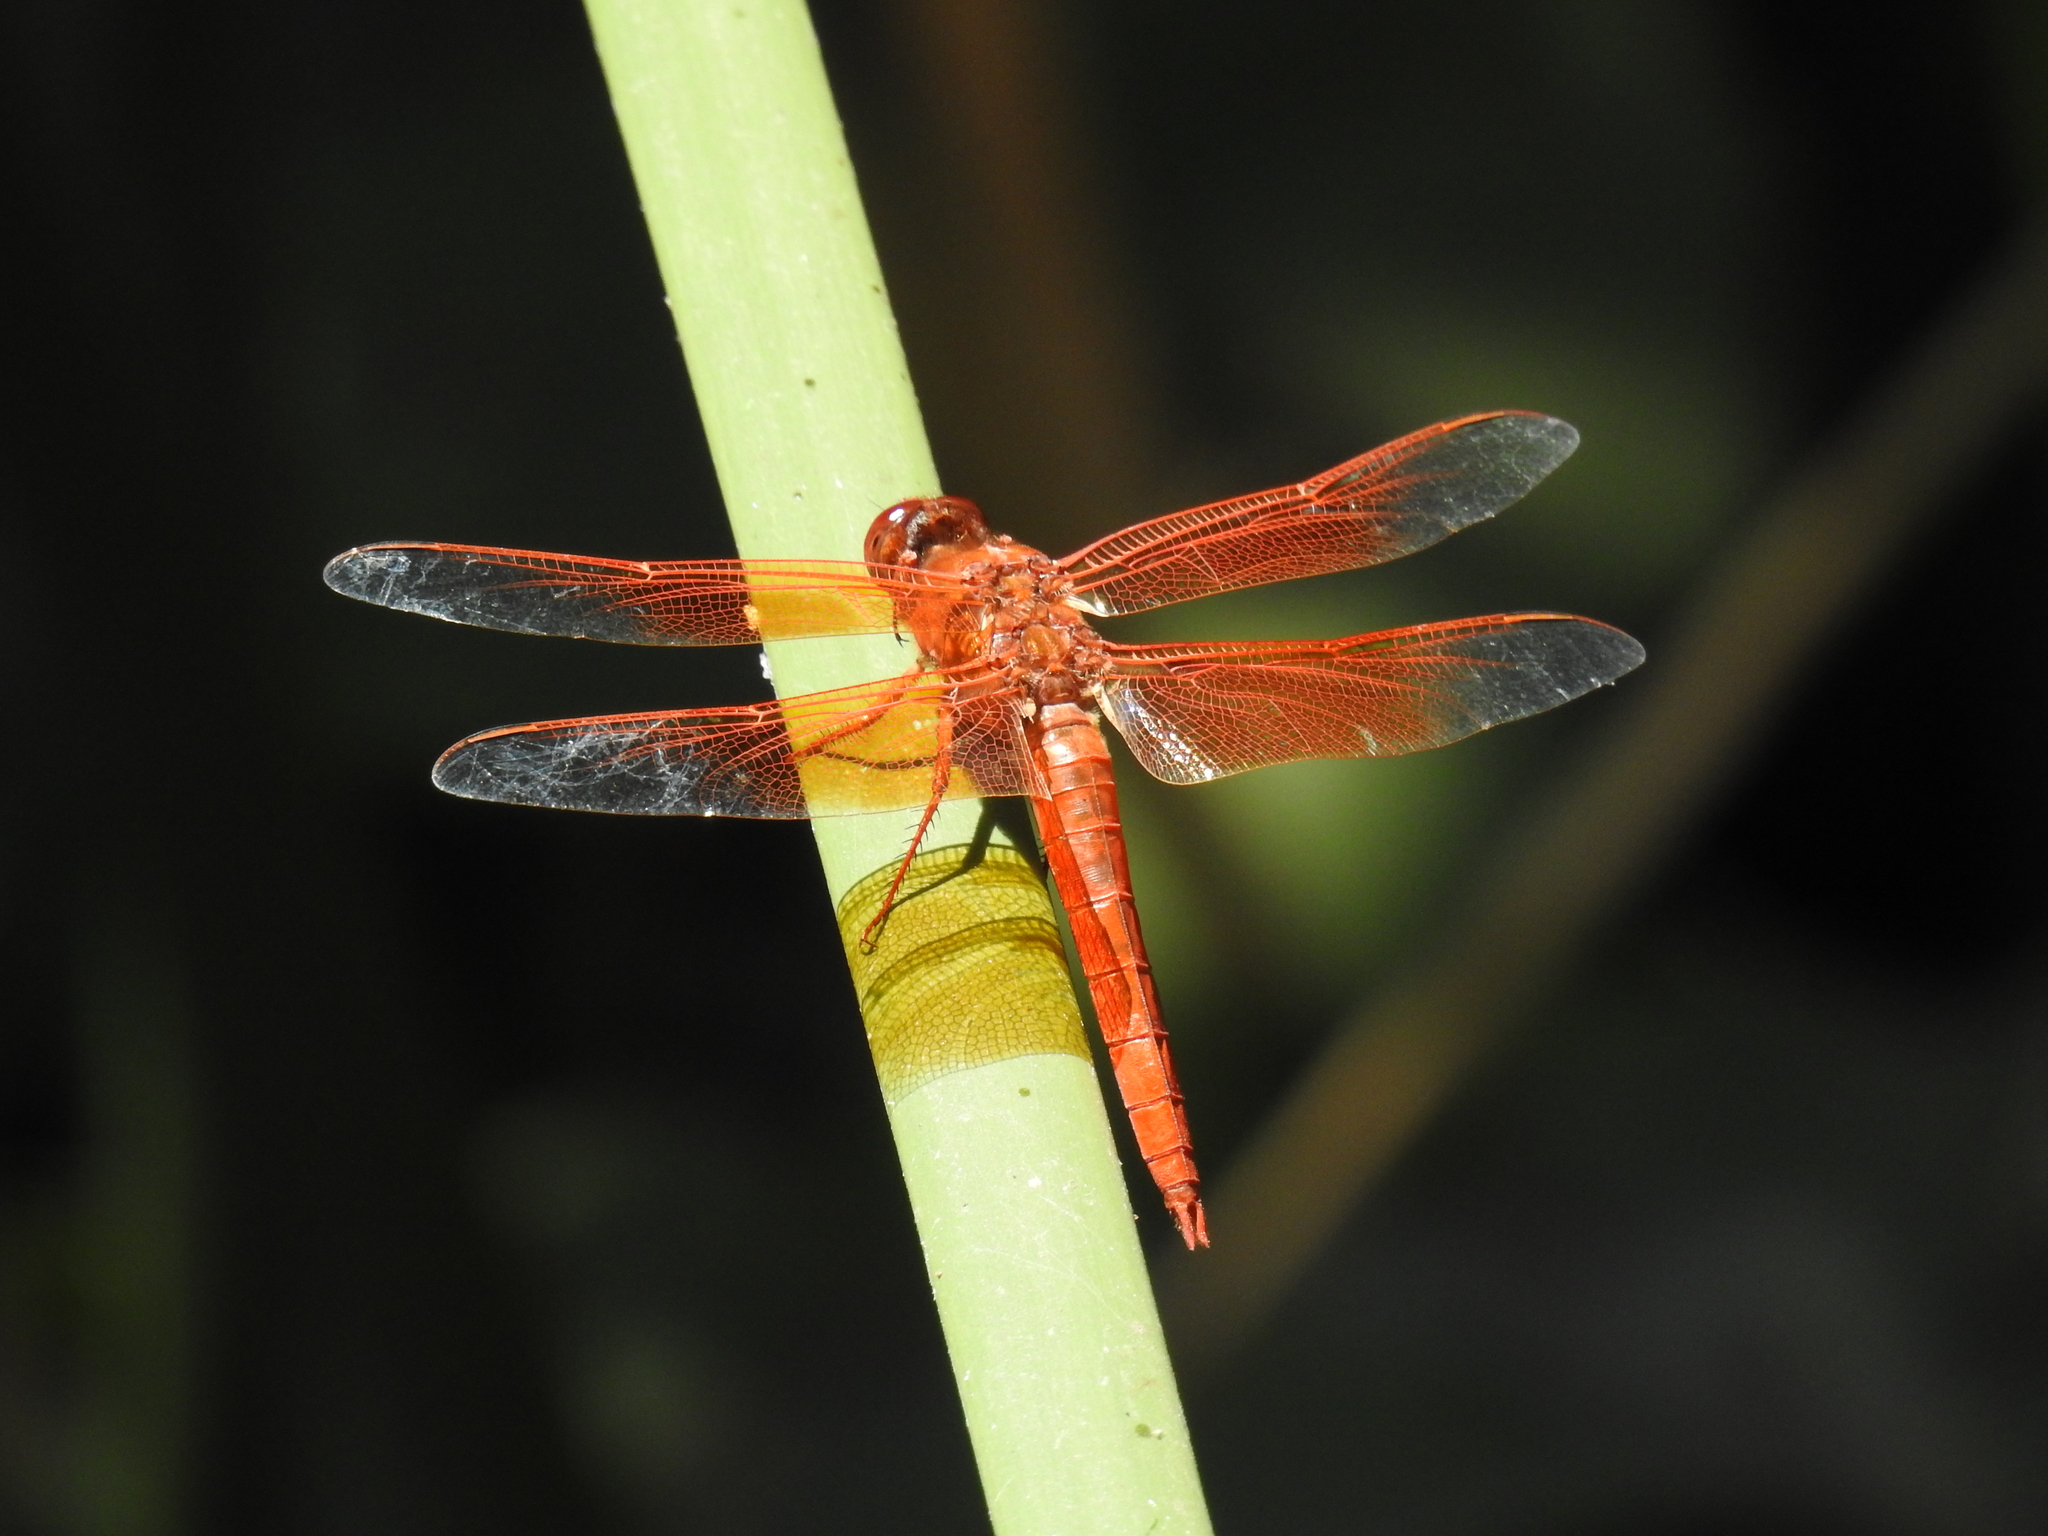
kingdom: Animalia
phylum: Arthropoda
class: Insecta
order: Odonata
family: Libellulidae
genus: Libellula
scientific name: Libellula saturata
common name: Flame skimmer
